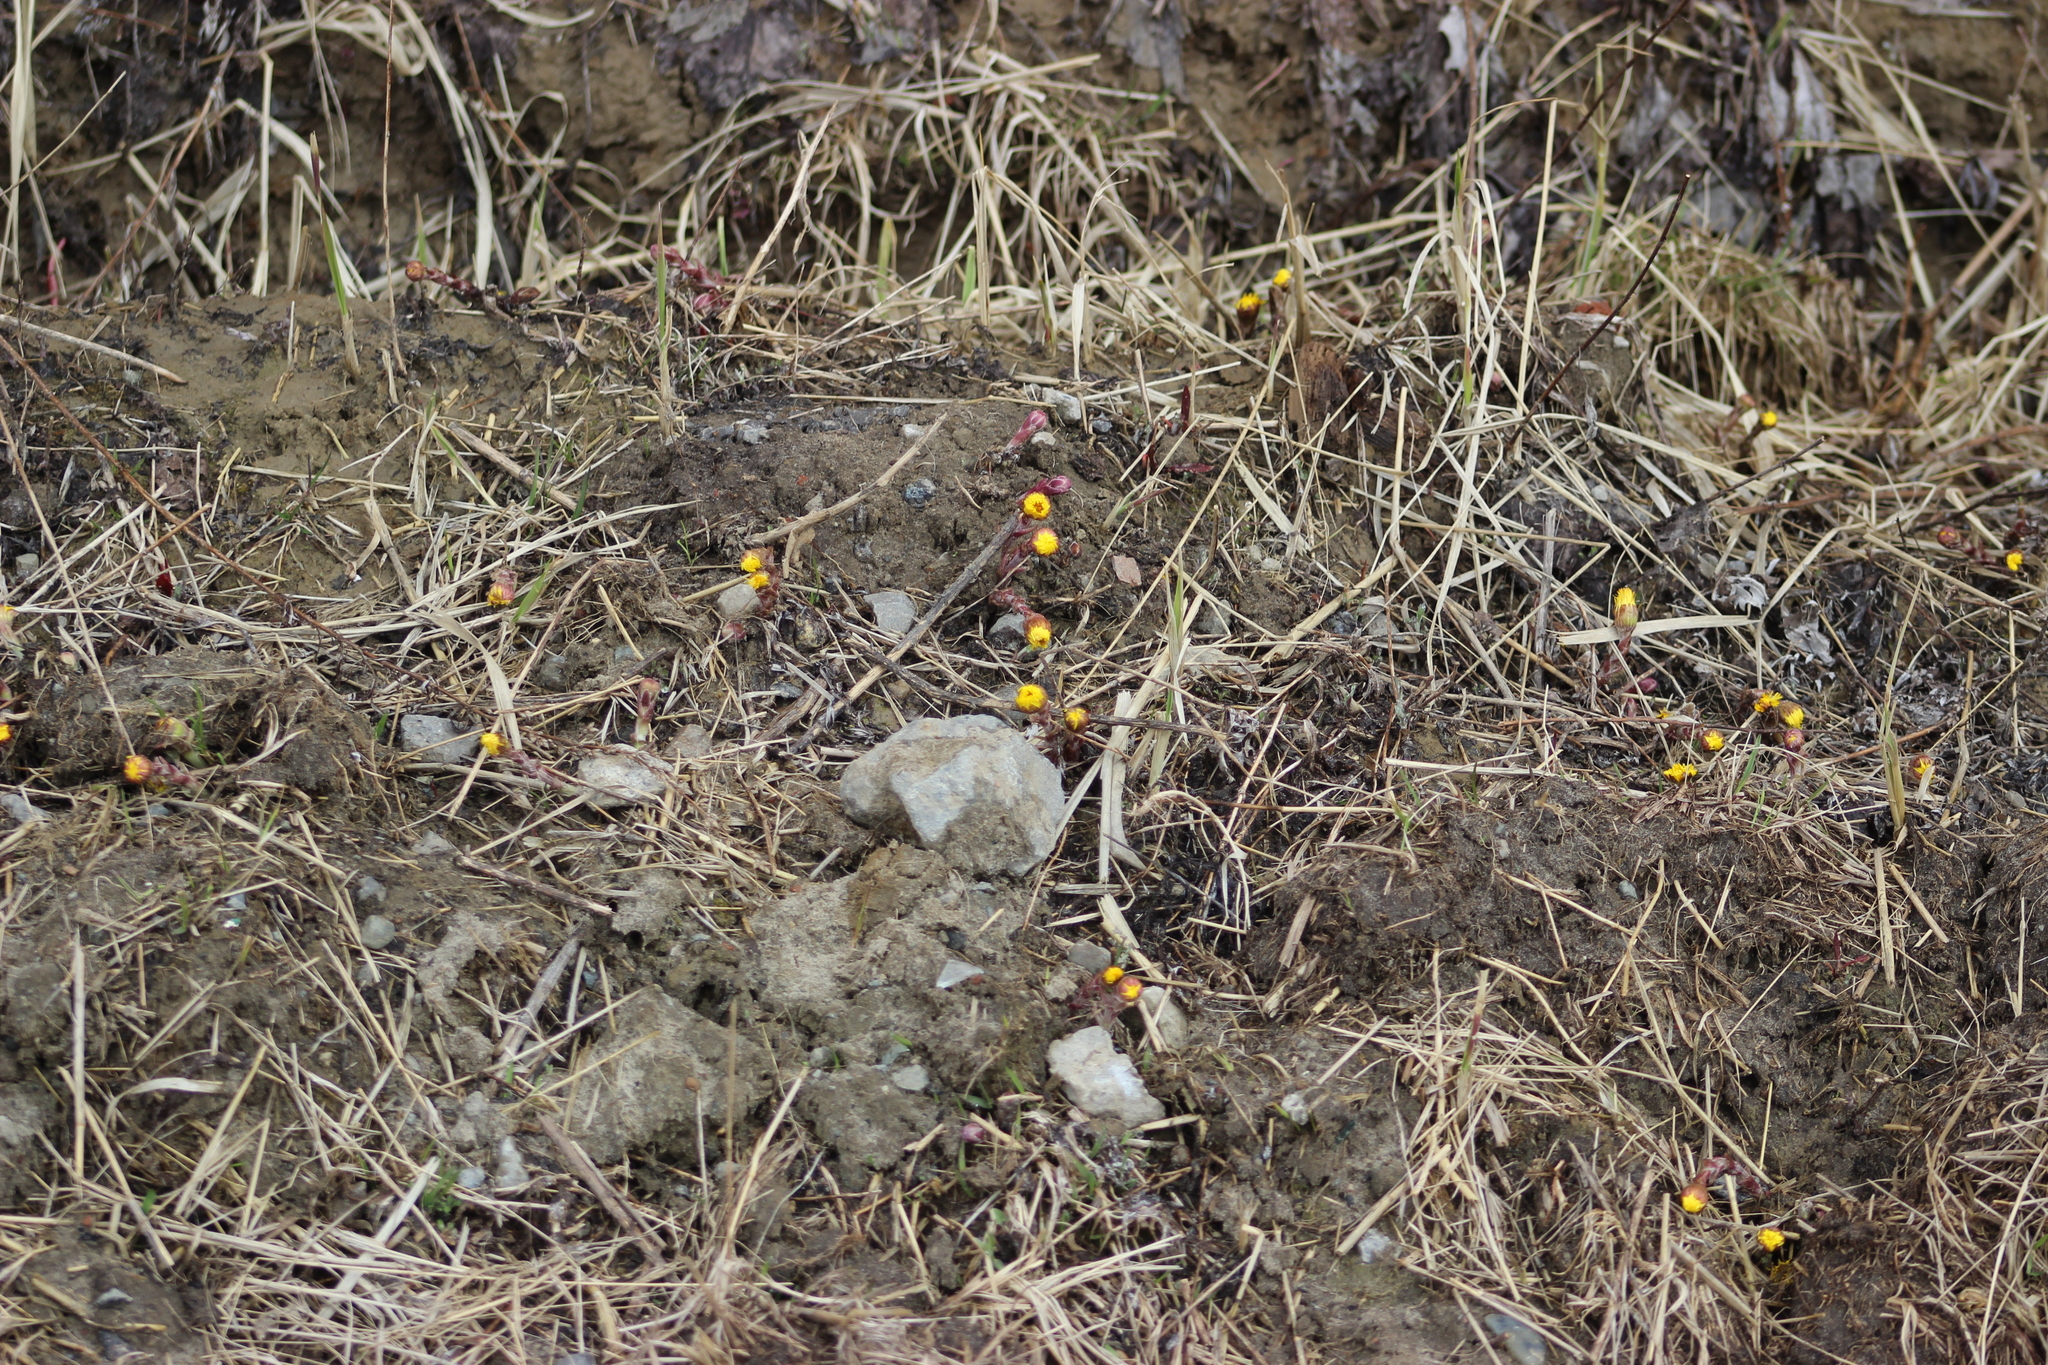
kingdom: Plantae
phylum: Tracheophyta
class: Magnoliopsida
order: Asterales
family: Asteraceae
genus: Tussilago
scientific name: Tussilago farfara
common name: Coltsfoot
